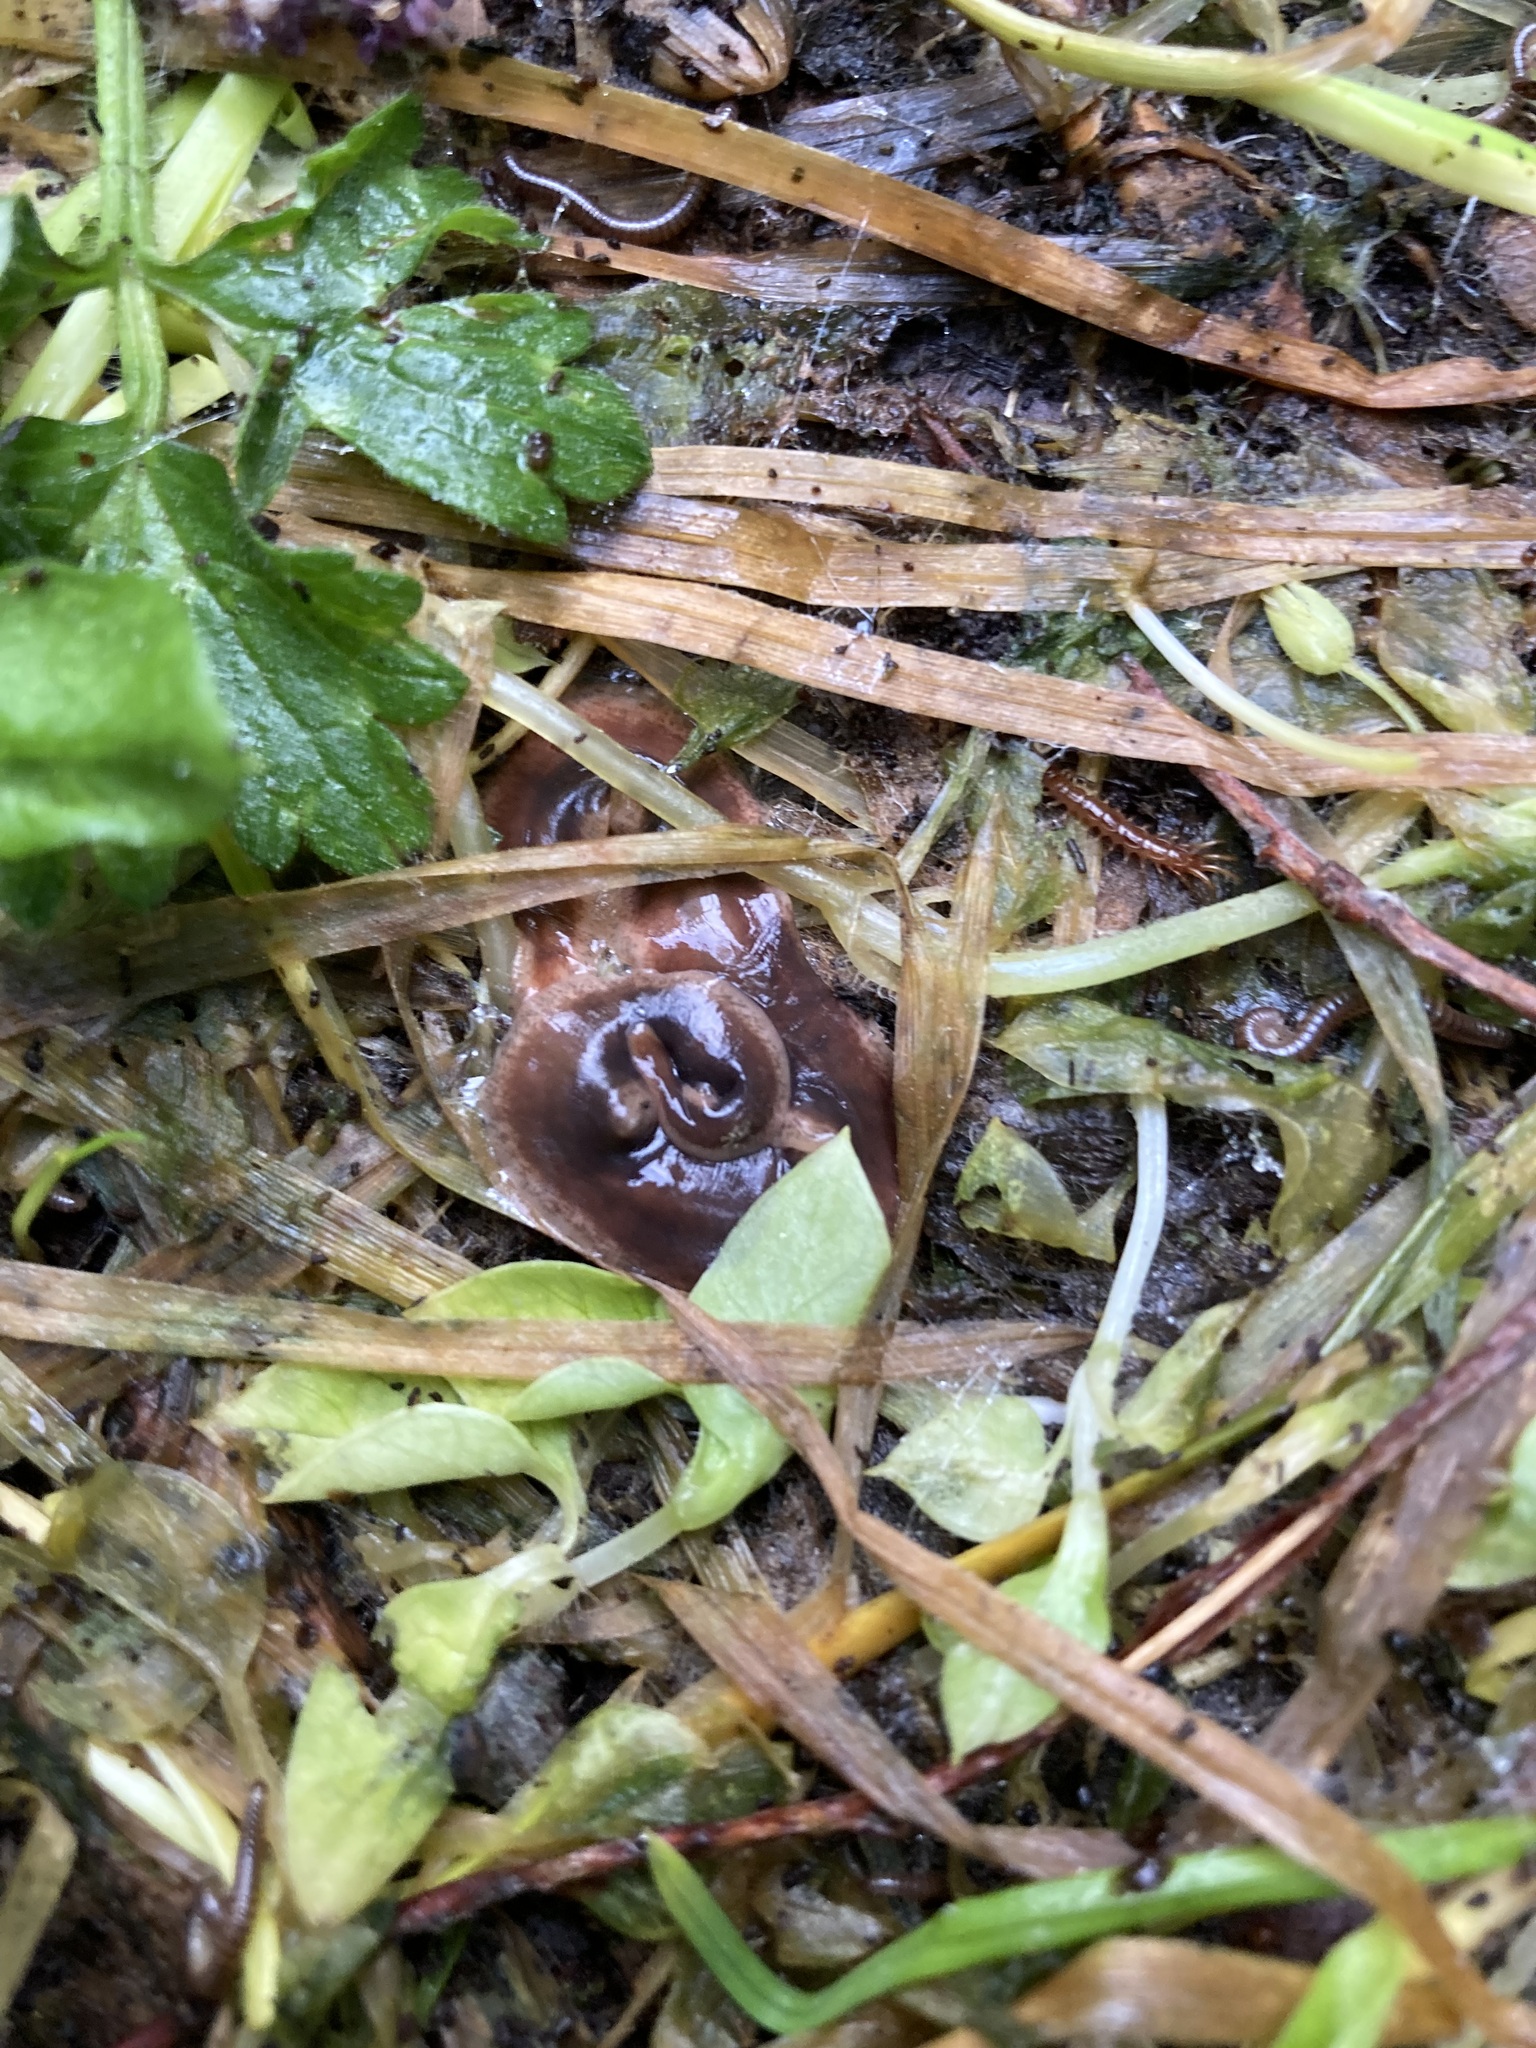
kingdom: Animalia
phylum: Platyhelminthes
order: Tricladida
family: Geoplanidae
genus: Arthurdendyus
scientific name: Arthurdendyus triangulatus
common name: New zealand flatworm
